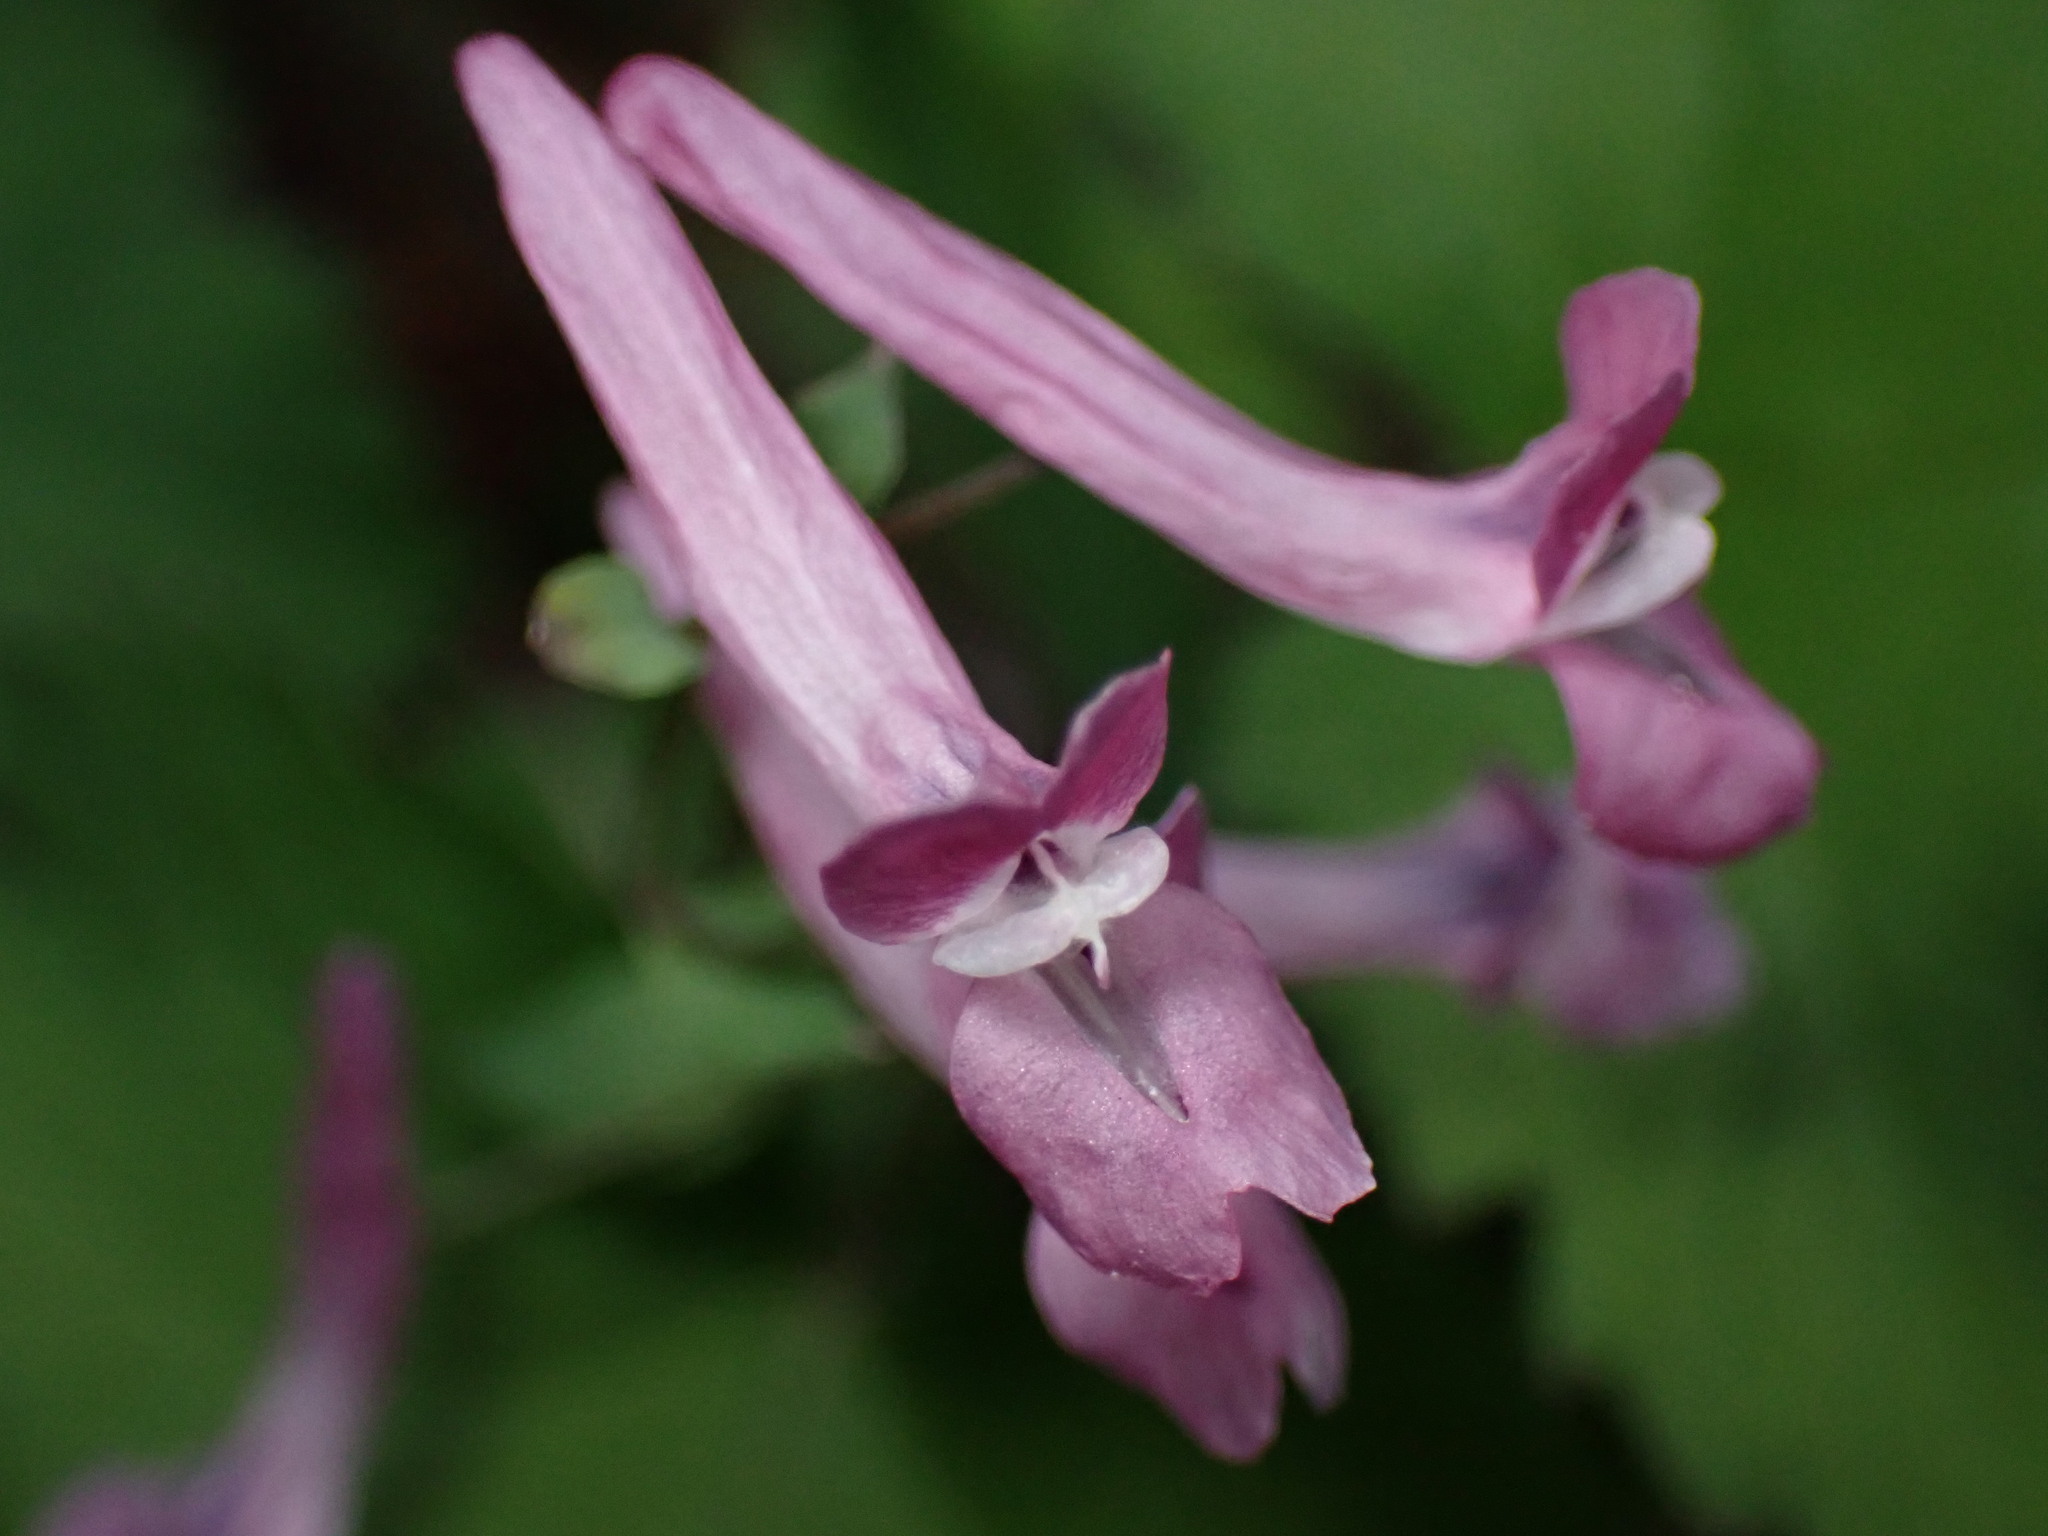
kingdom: Plantae
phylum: Tracheophyta
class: Magnoliopsida
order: Ranunculales
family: Papaveraceae
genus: Corydalis
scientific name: Corydalis decumbens
